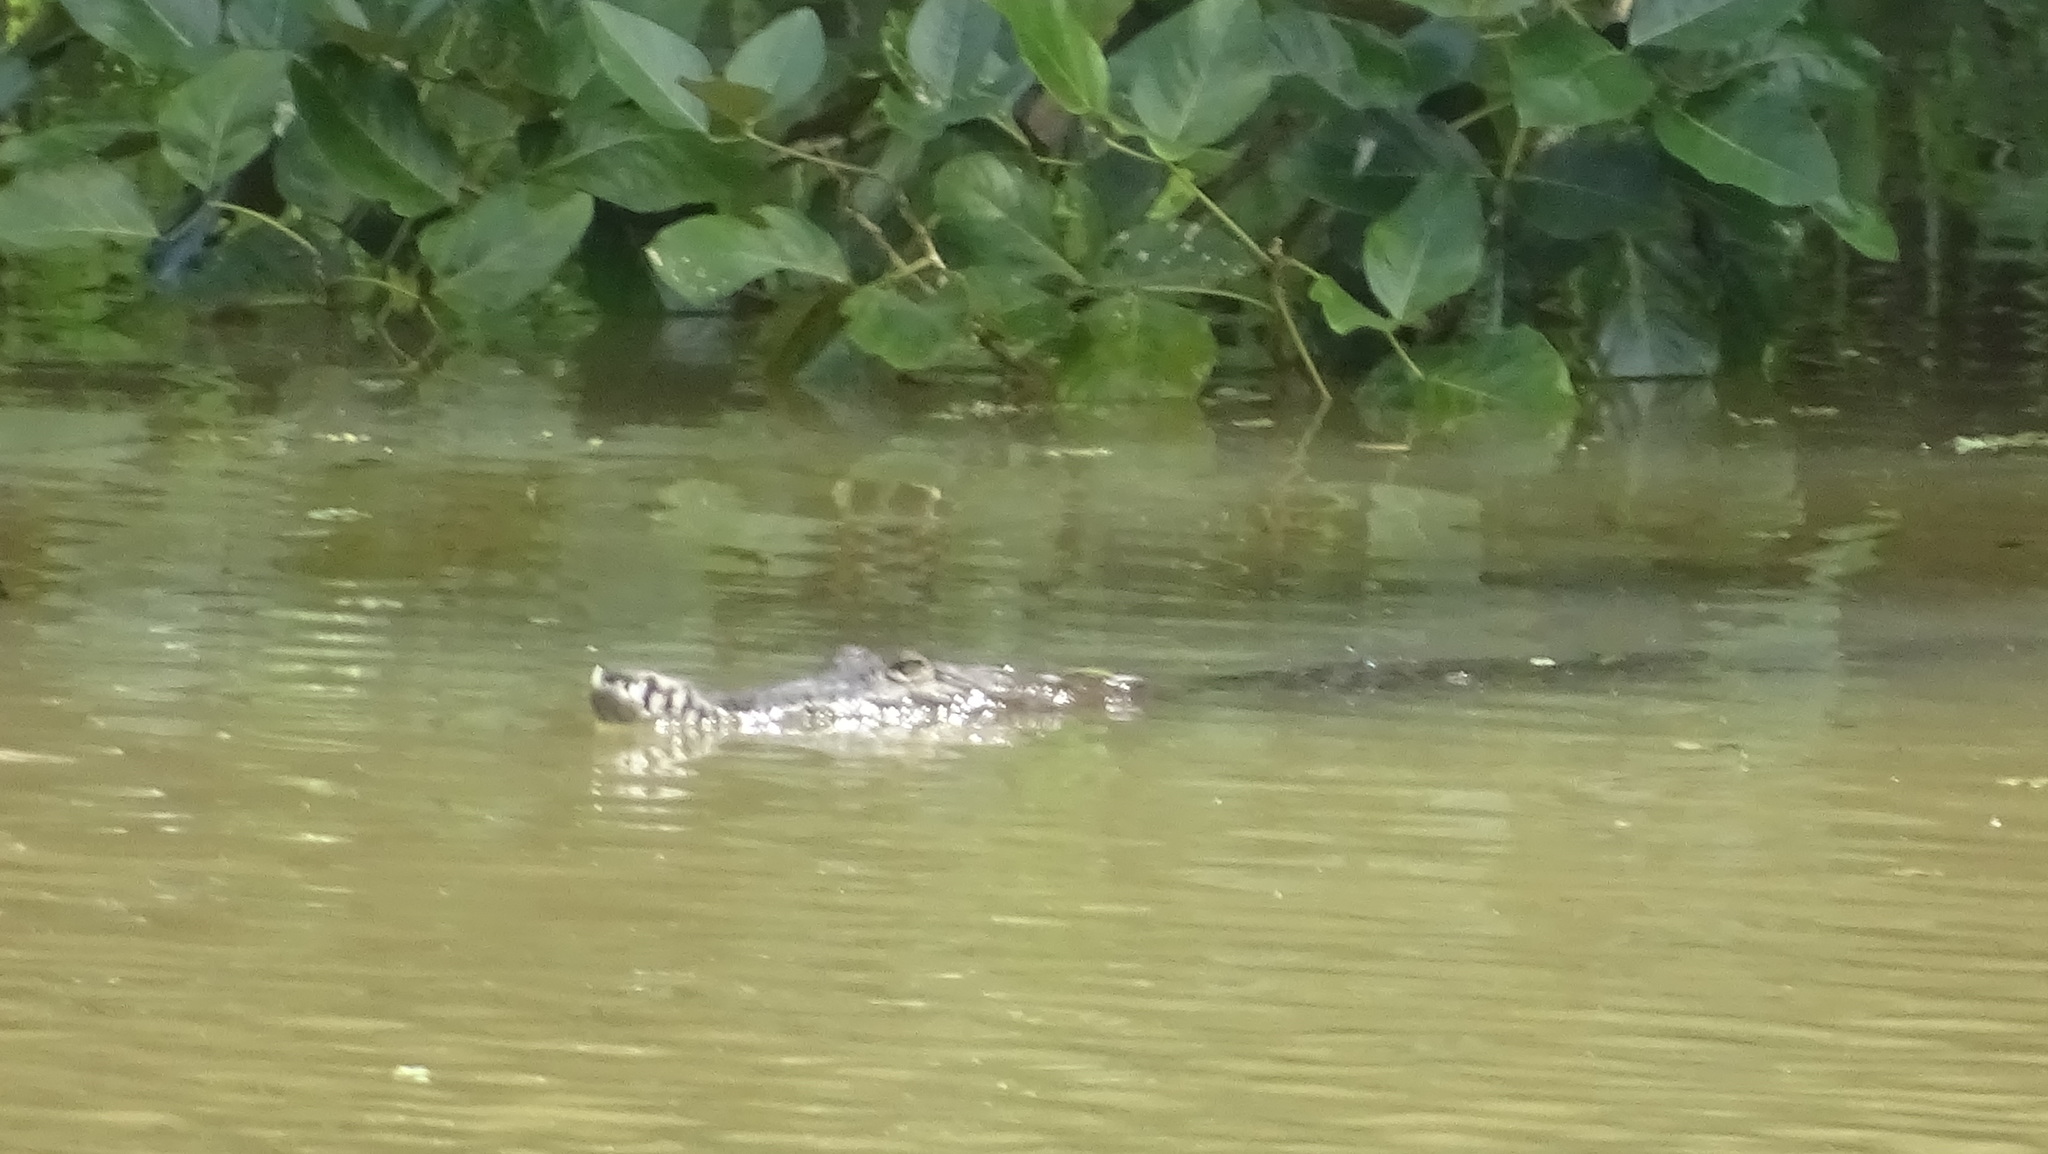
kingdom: Animalia
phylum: Chordata
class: Crocodylia
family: Crocodylidae
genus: Crocodylus
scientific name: Crocodylus acutus
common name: American crocodile
